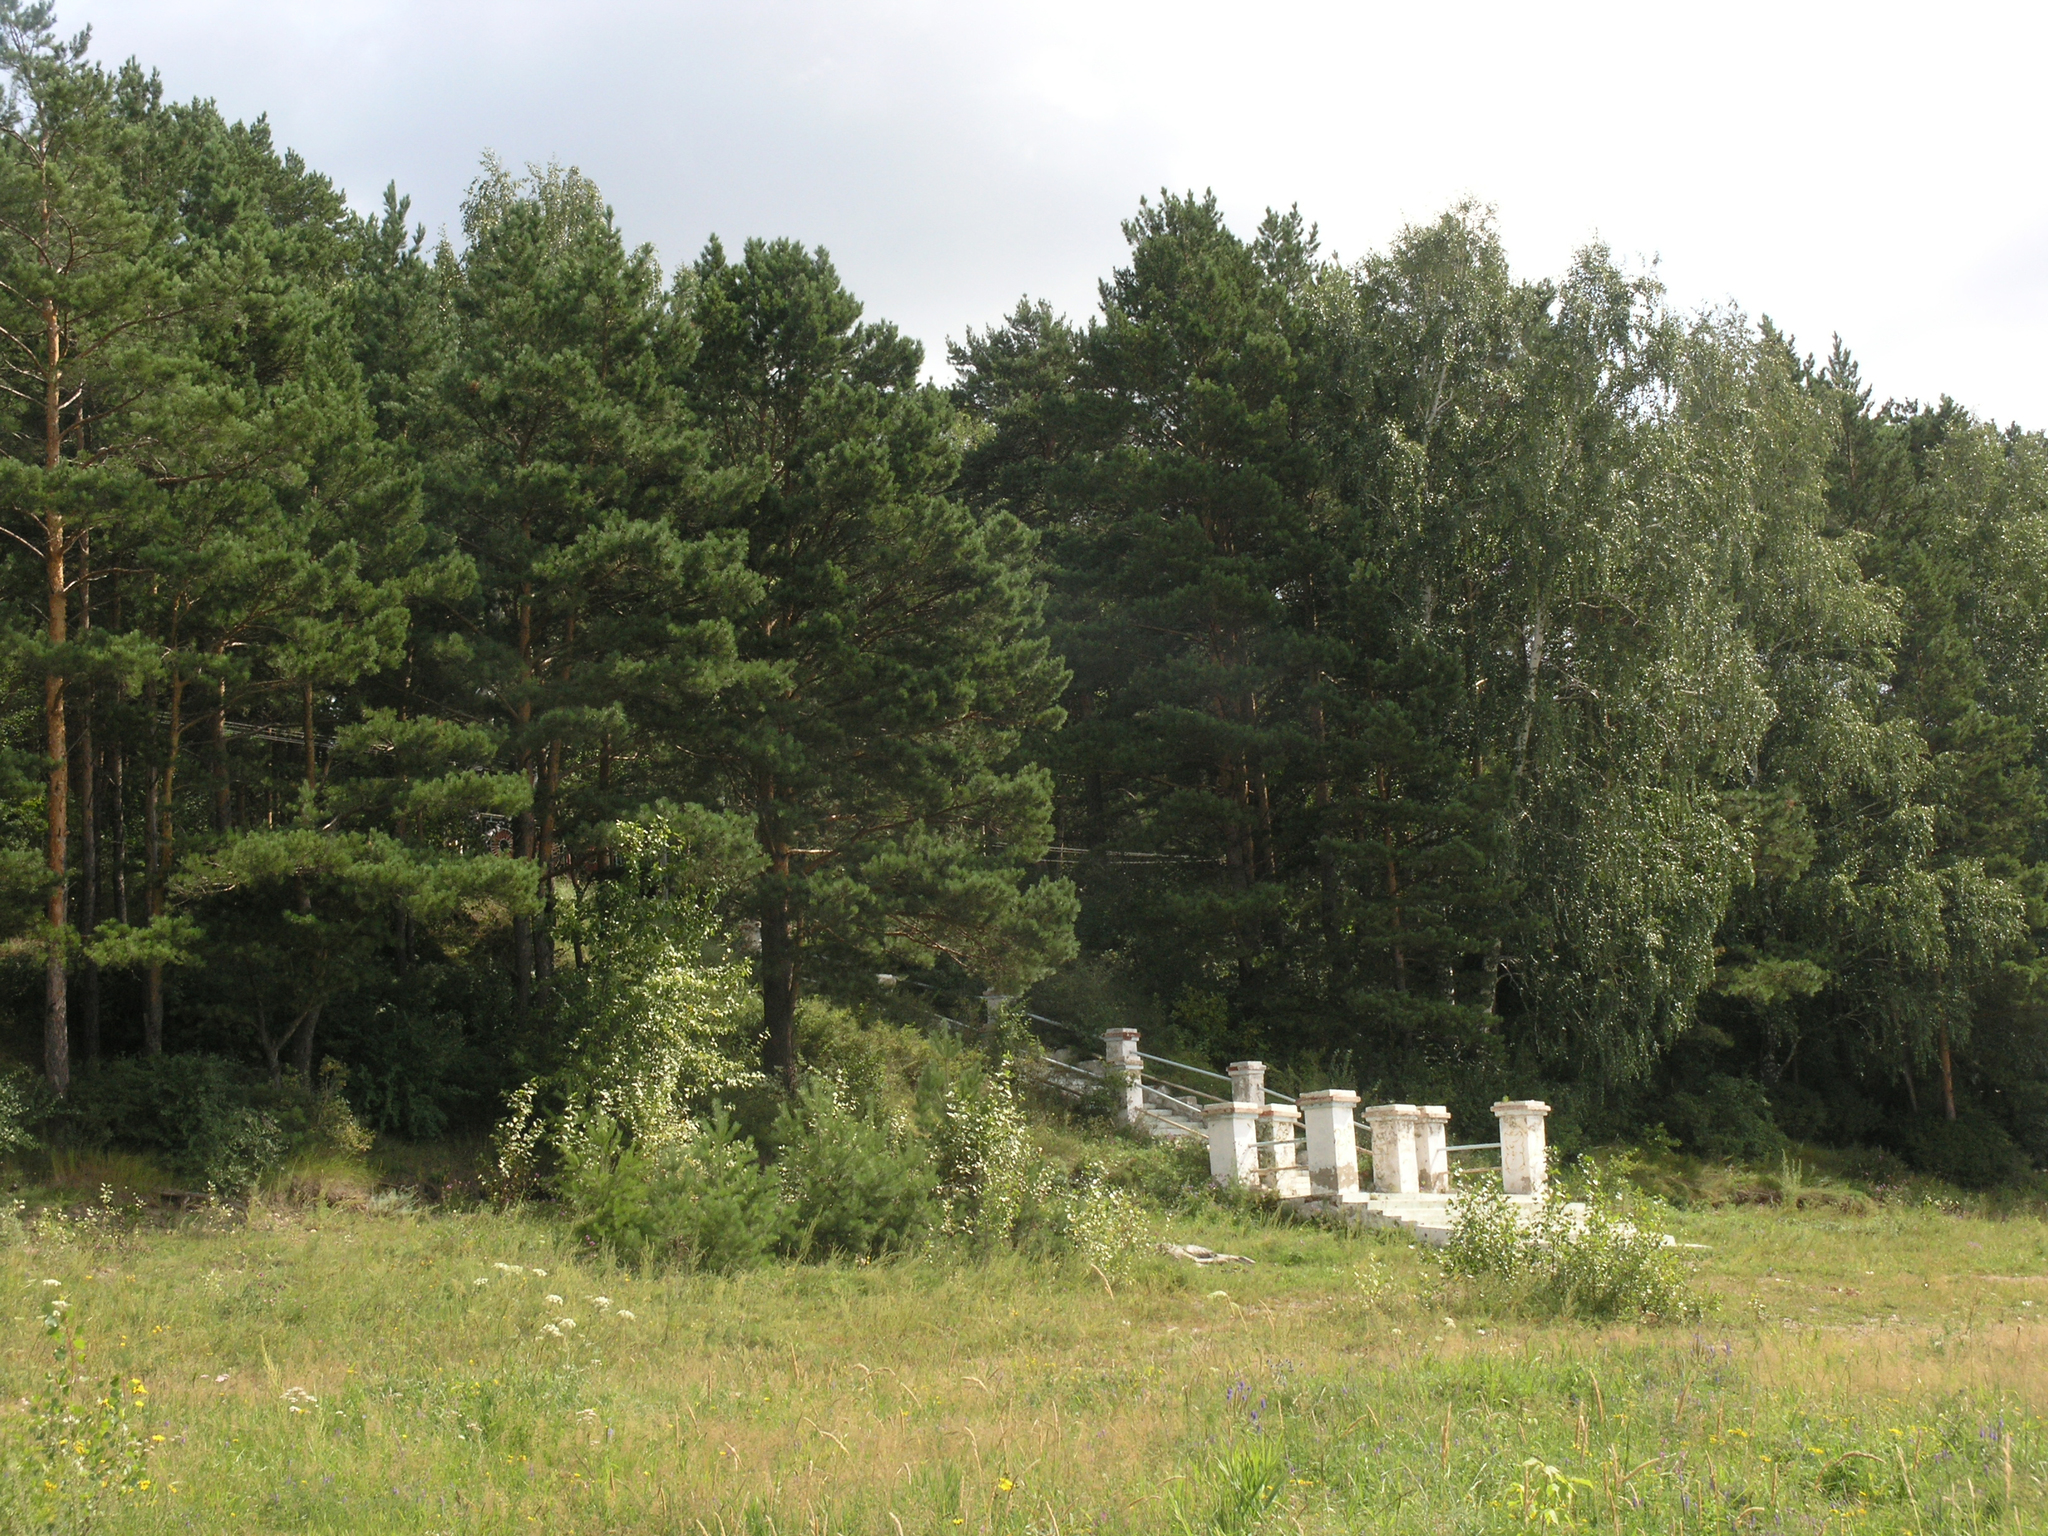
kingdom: Plantae
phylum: Tracheophyta
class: Pinopsida
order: Pinales
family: Pinaceae
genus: Pinus
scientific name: Pinus sylvestris
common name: Scots pine
